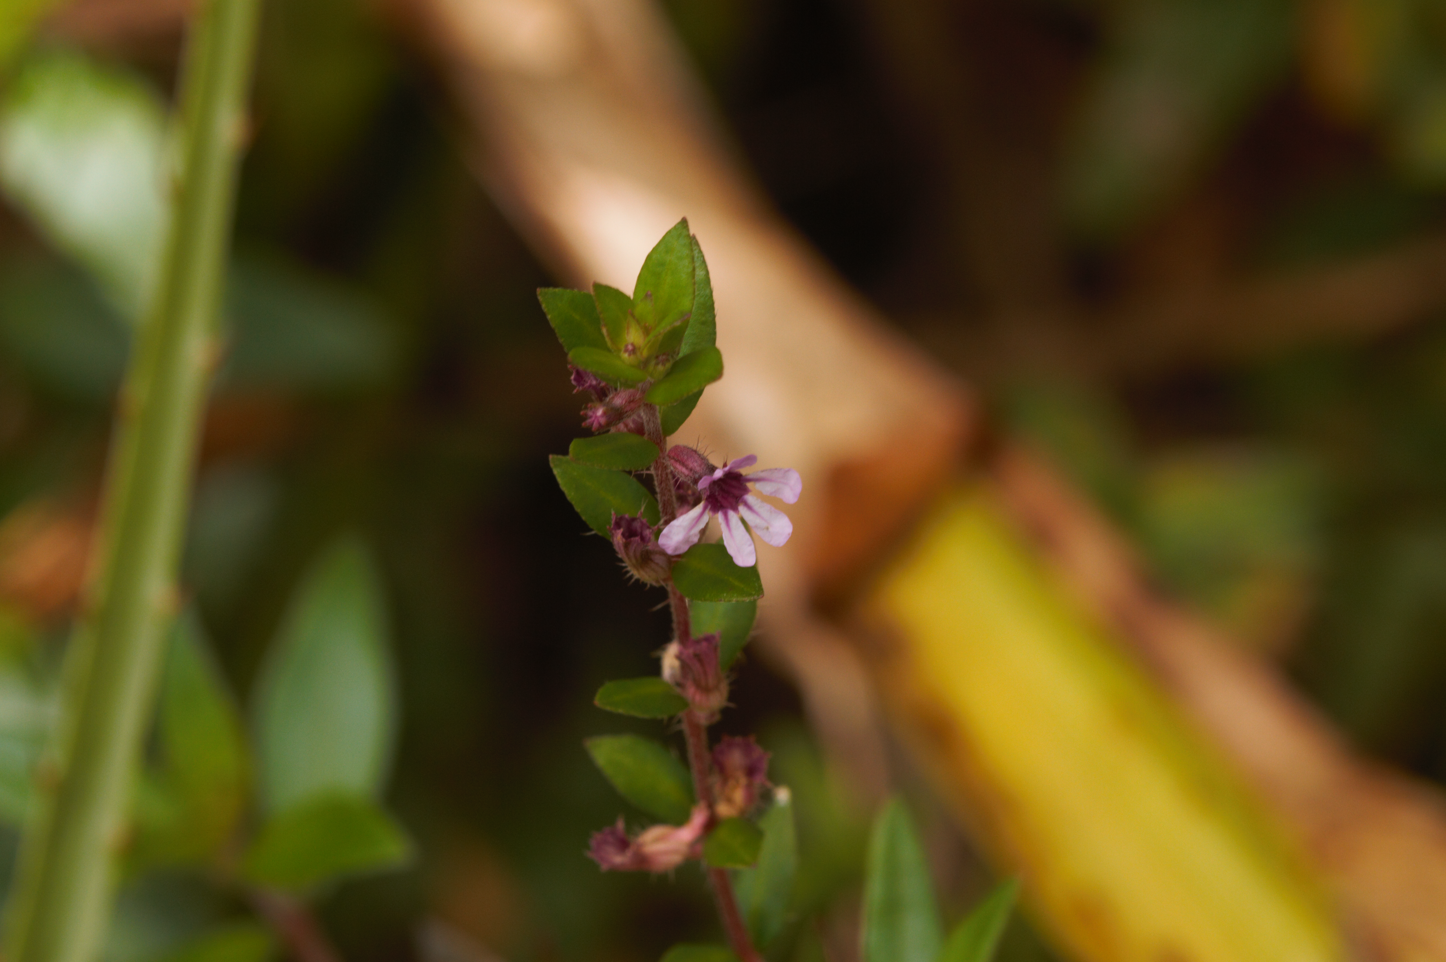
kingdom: Plantae
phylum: Tracheophyta
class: Magnoliopsida
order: Myrtales
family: Lythraceae
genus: Cuphea
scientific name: Cuphea blackii
